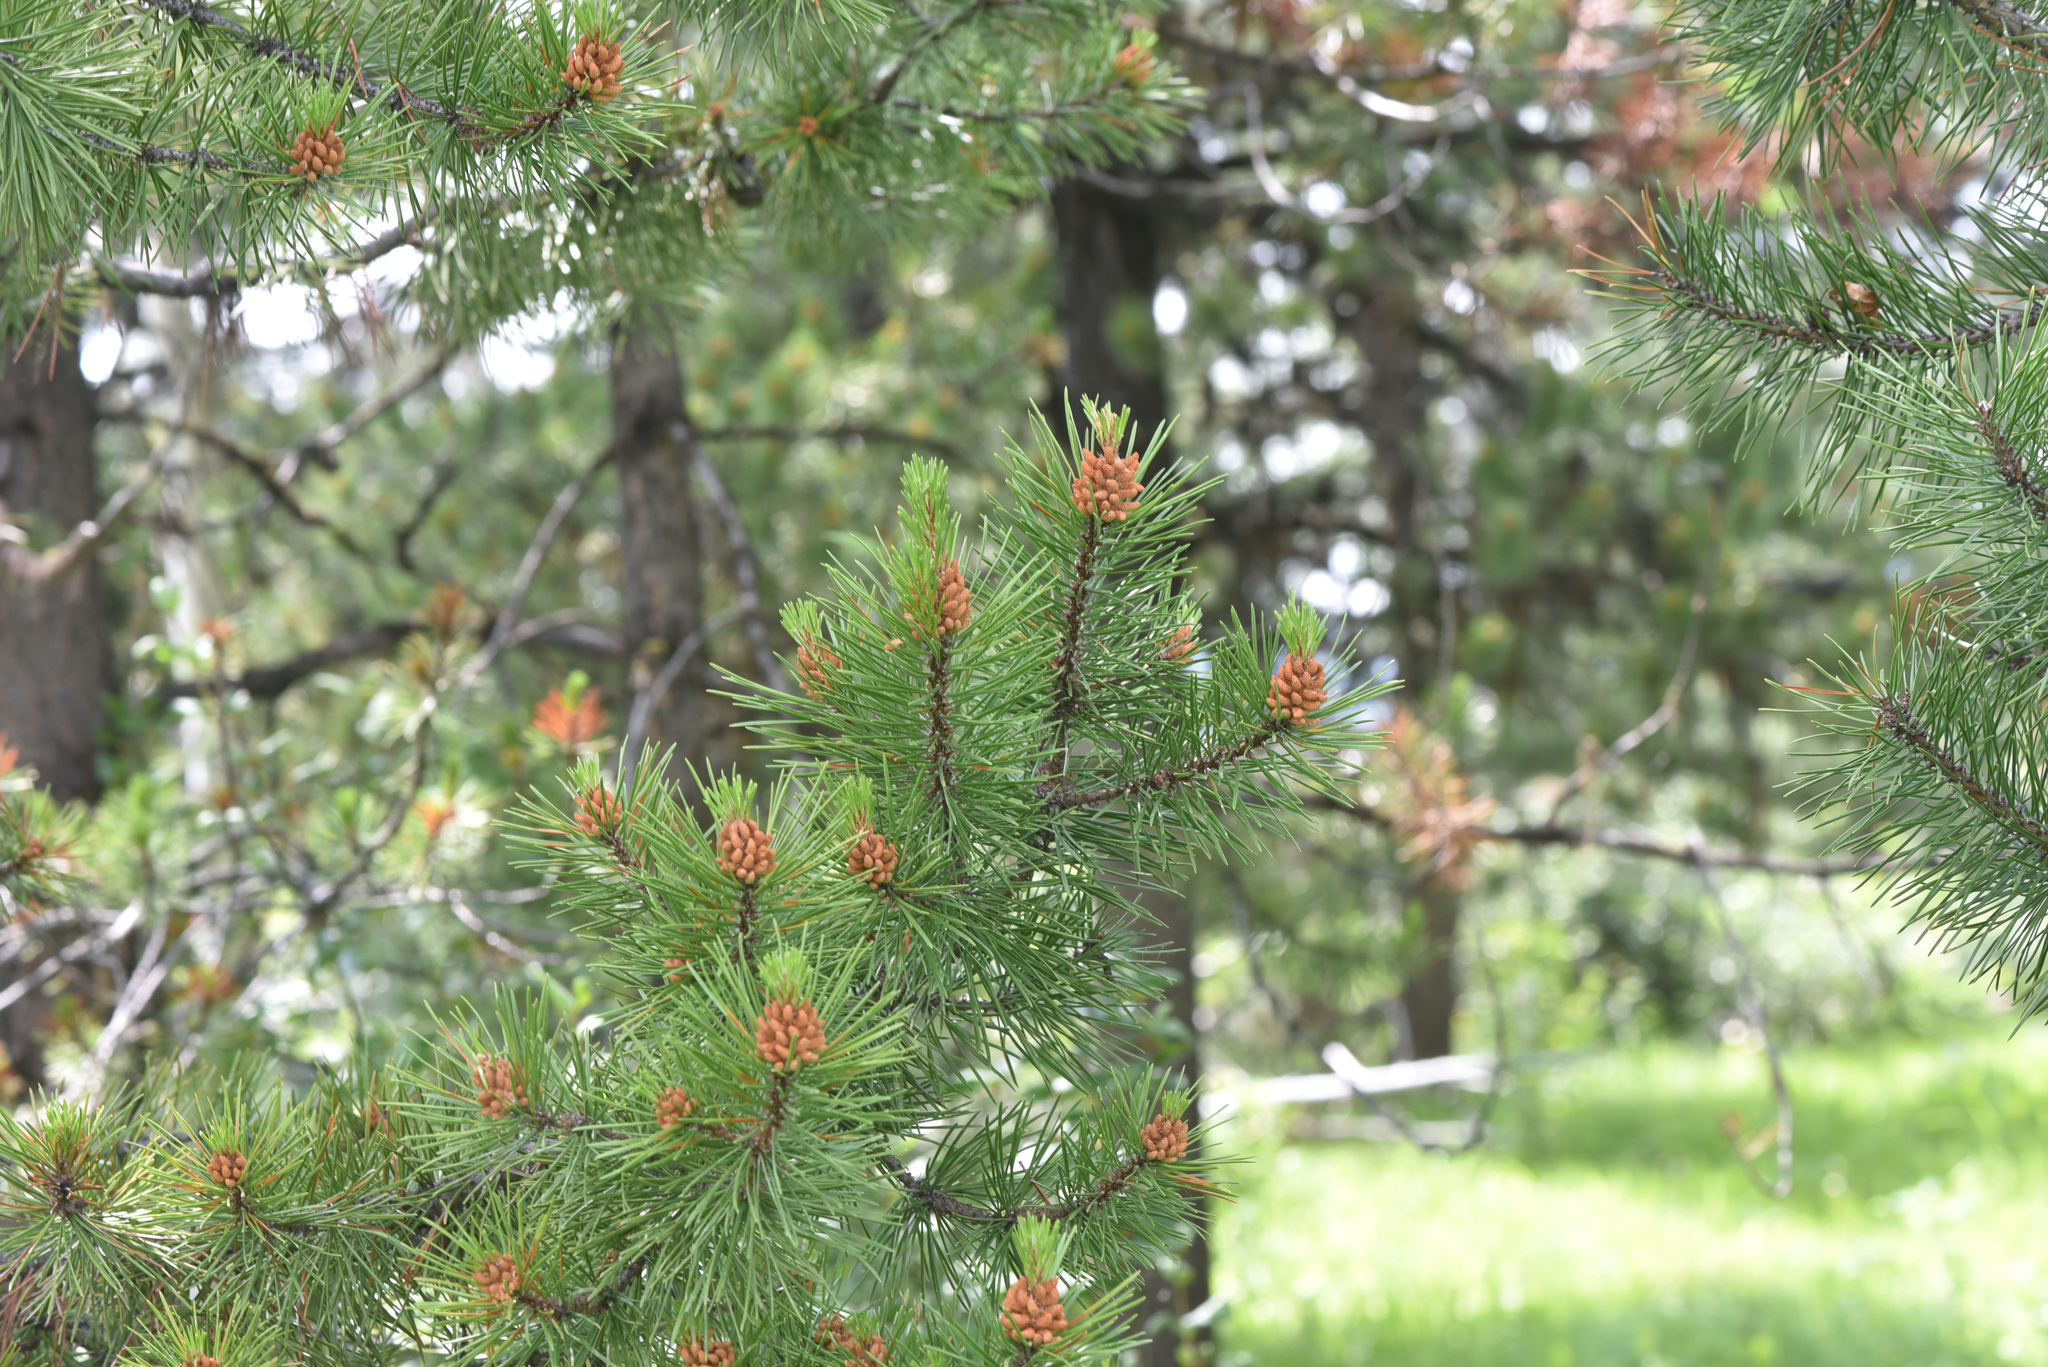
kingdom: Plantae
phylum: Tracheophyta
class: Pinopsida
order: Pinales
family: Pinaceae
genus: Pinus
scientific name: Pinus contorta
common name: Lodgepole pine
